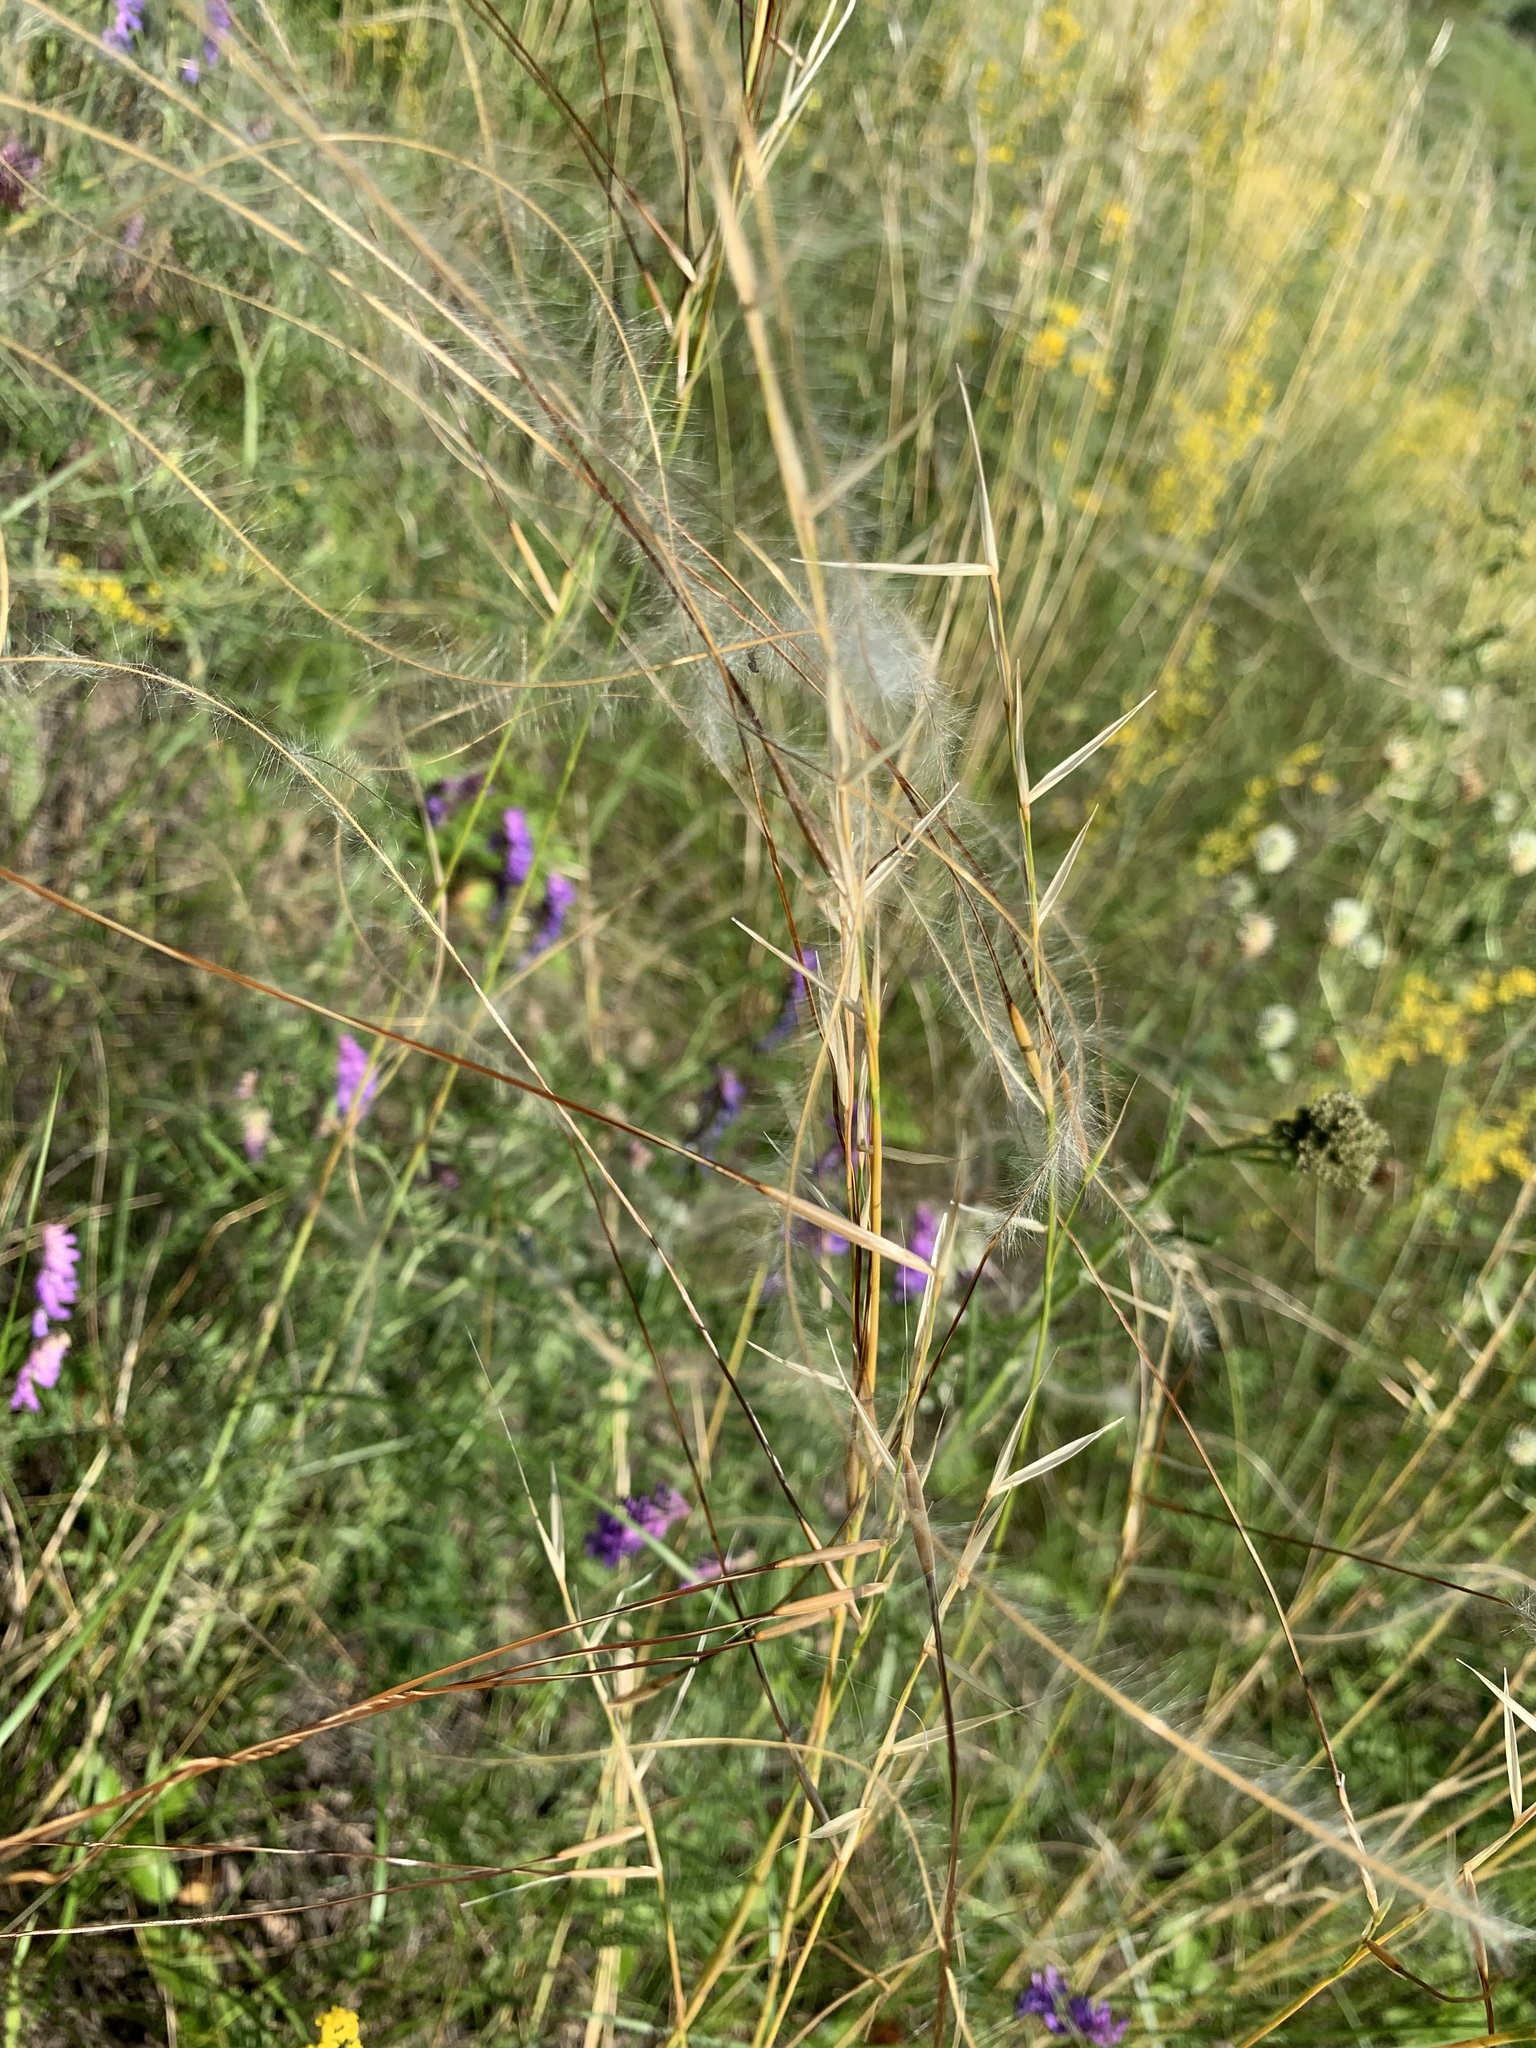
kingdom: Plantae
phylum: Tracheophyta
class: Liliopsida
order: Poales
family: Poaceae
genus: Stipa
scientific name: Stipa pennata
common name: European feather grass
